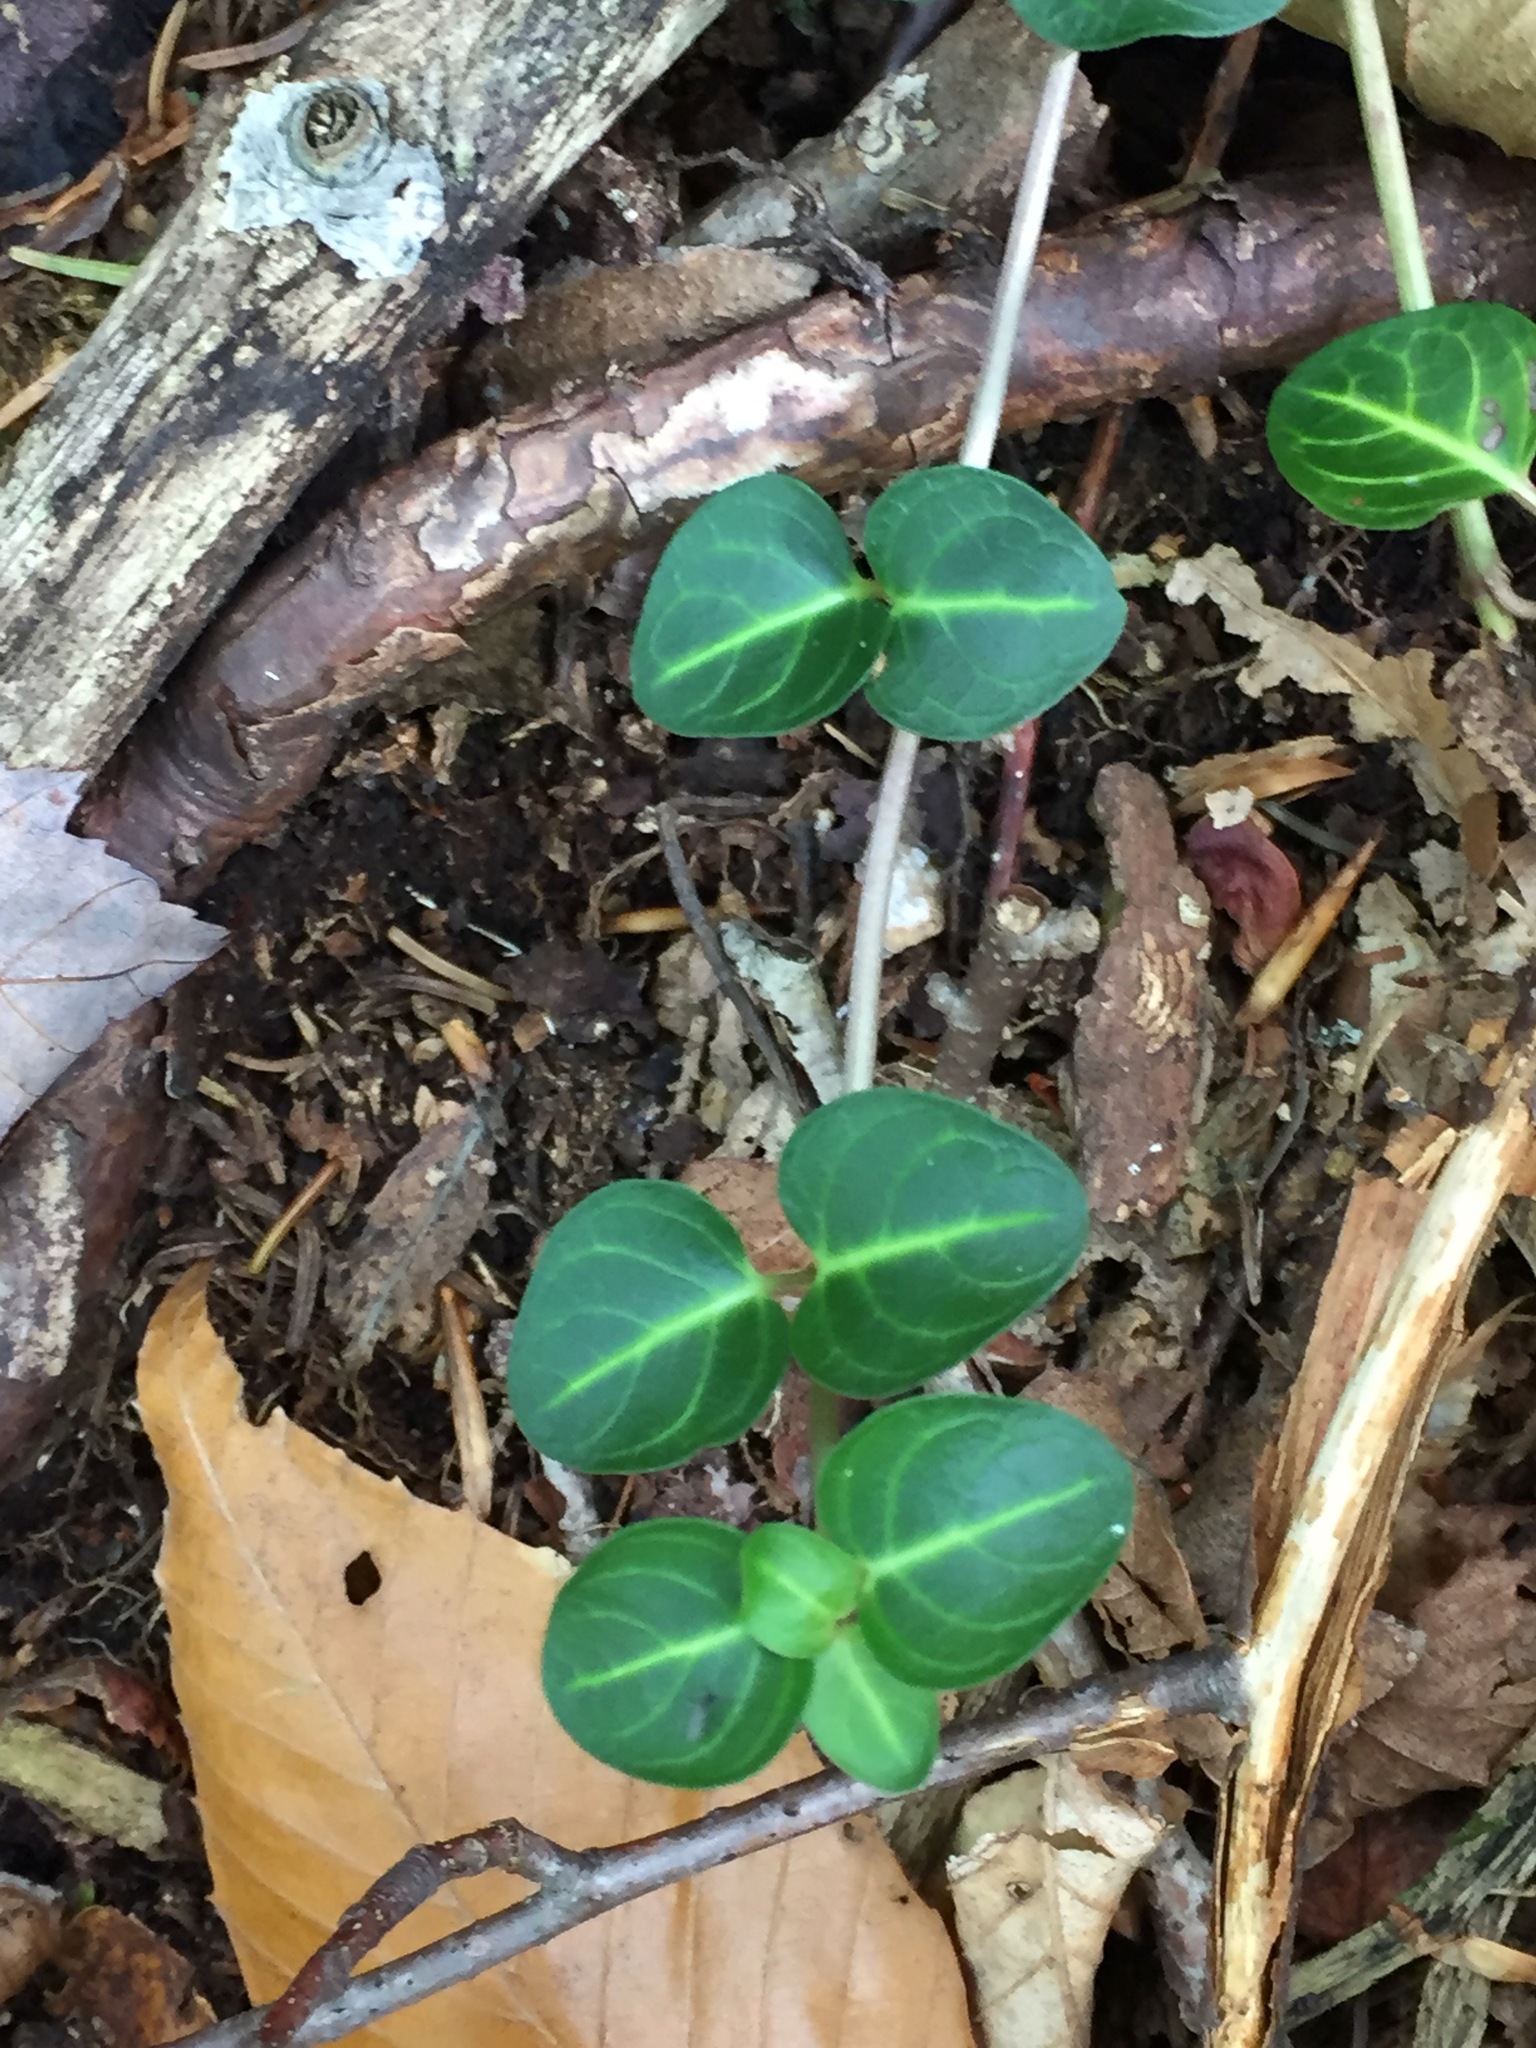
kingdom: Plantae
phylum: Tracheophyta
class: Magnoliopsida
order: Gentianales
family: Rubiaceae
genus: Mitchella
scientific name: Mitchella repens
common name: Partridge-berry
